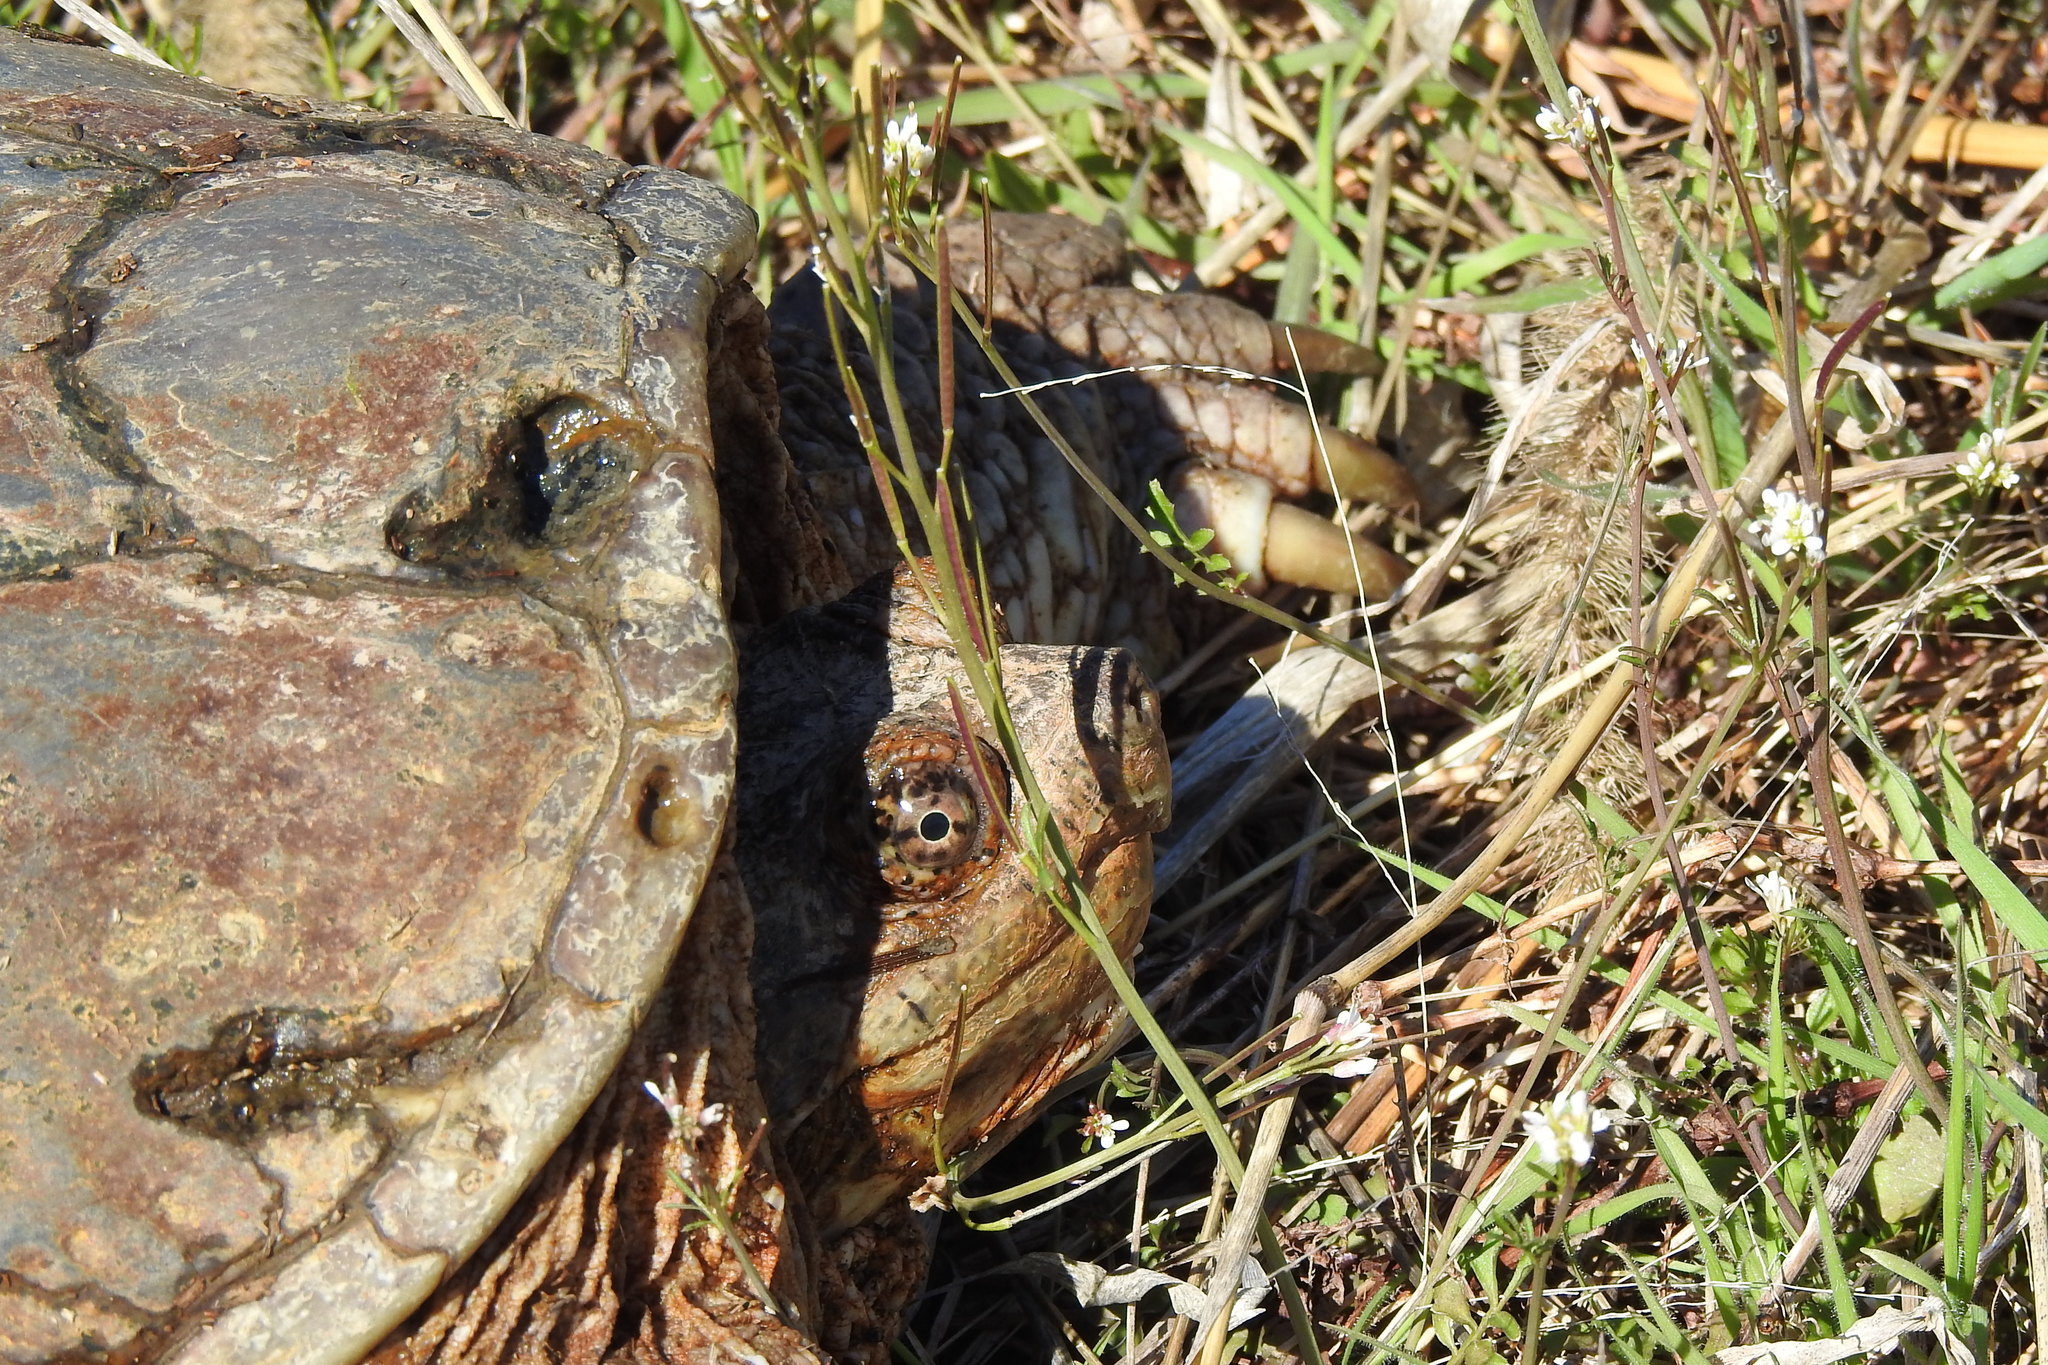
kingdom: Animalia
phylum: Chordata
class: Testudines
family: Chelydridae
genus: Chelydra
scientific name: Chelydra serpentina
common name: Common snapping turtle
